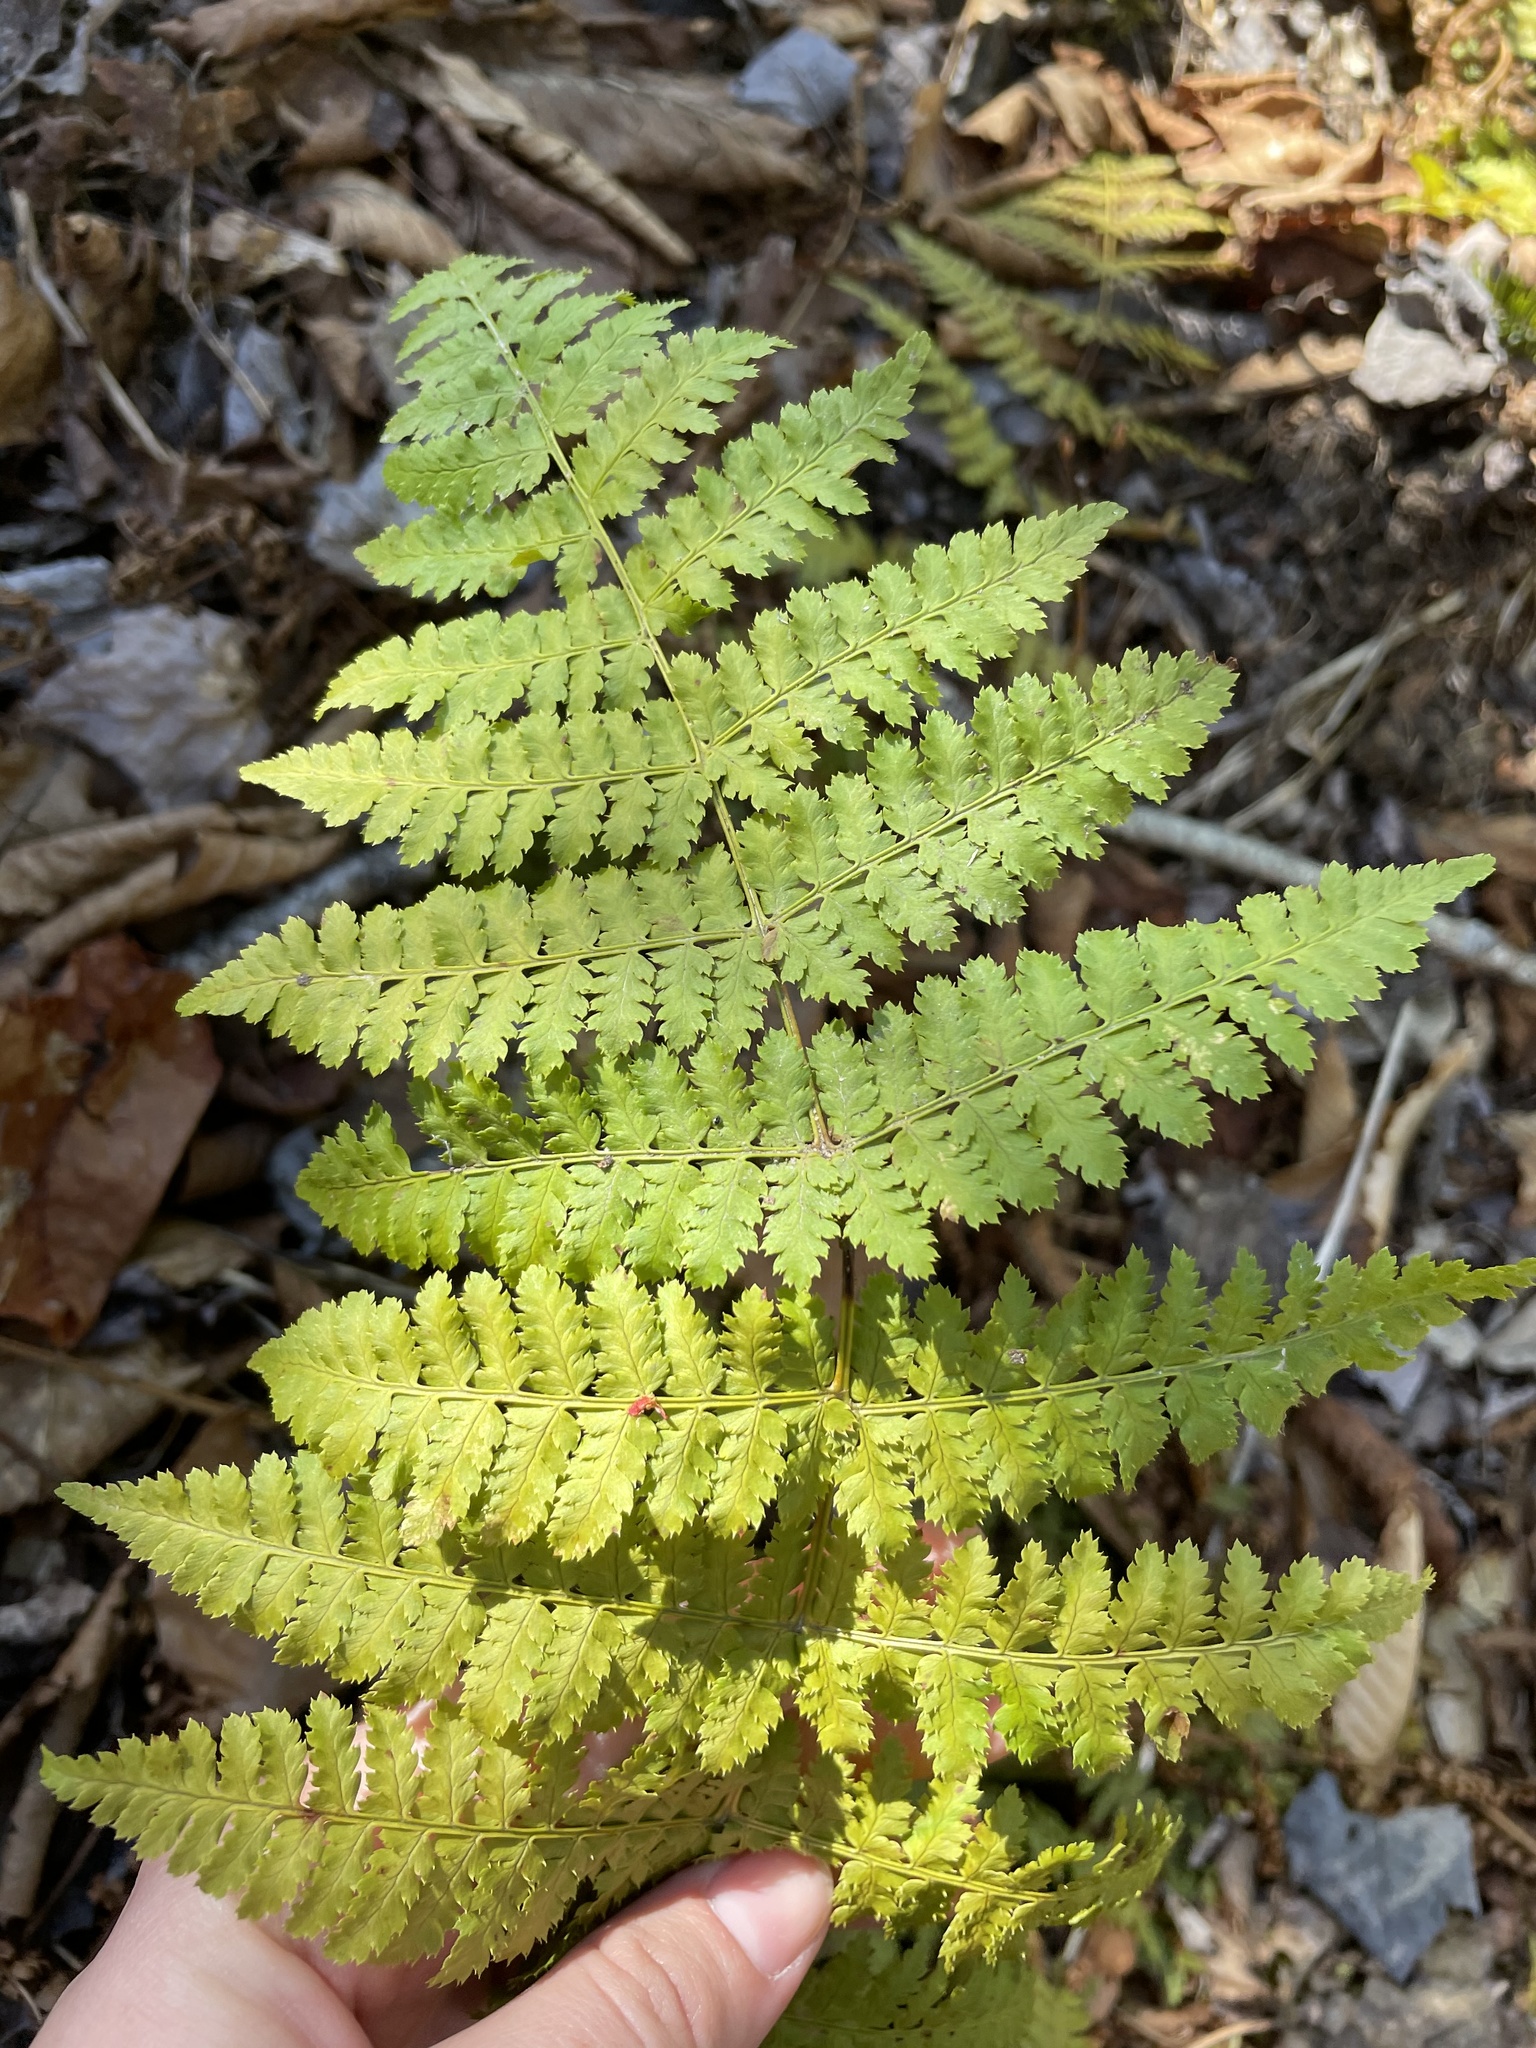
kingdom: Plantae
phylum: Tracheophyta
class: Polypodiopsida
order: Polypodiales
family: Dryopteridaceae
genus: Dryopteris
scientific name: Dryopteris intermedia
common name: Evergreen wood fern
